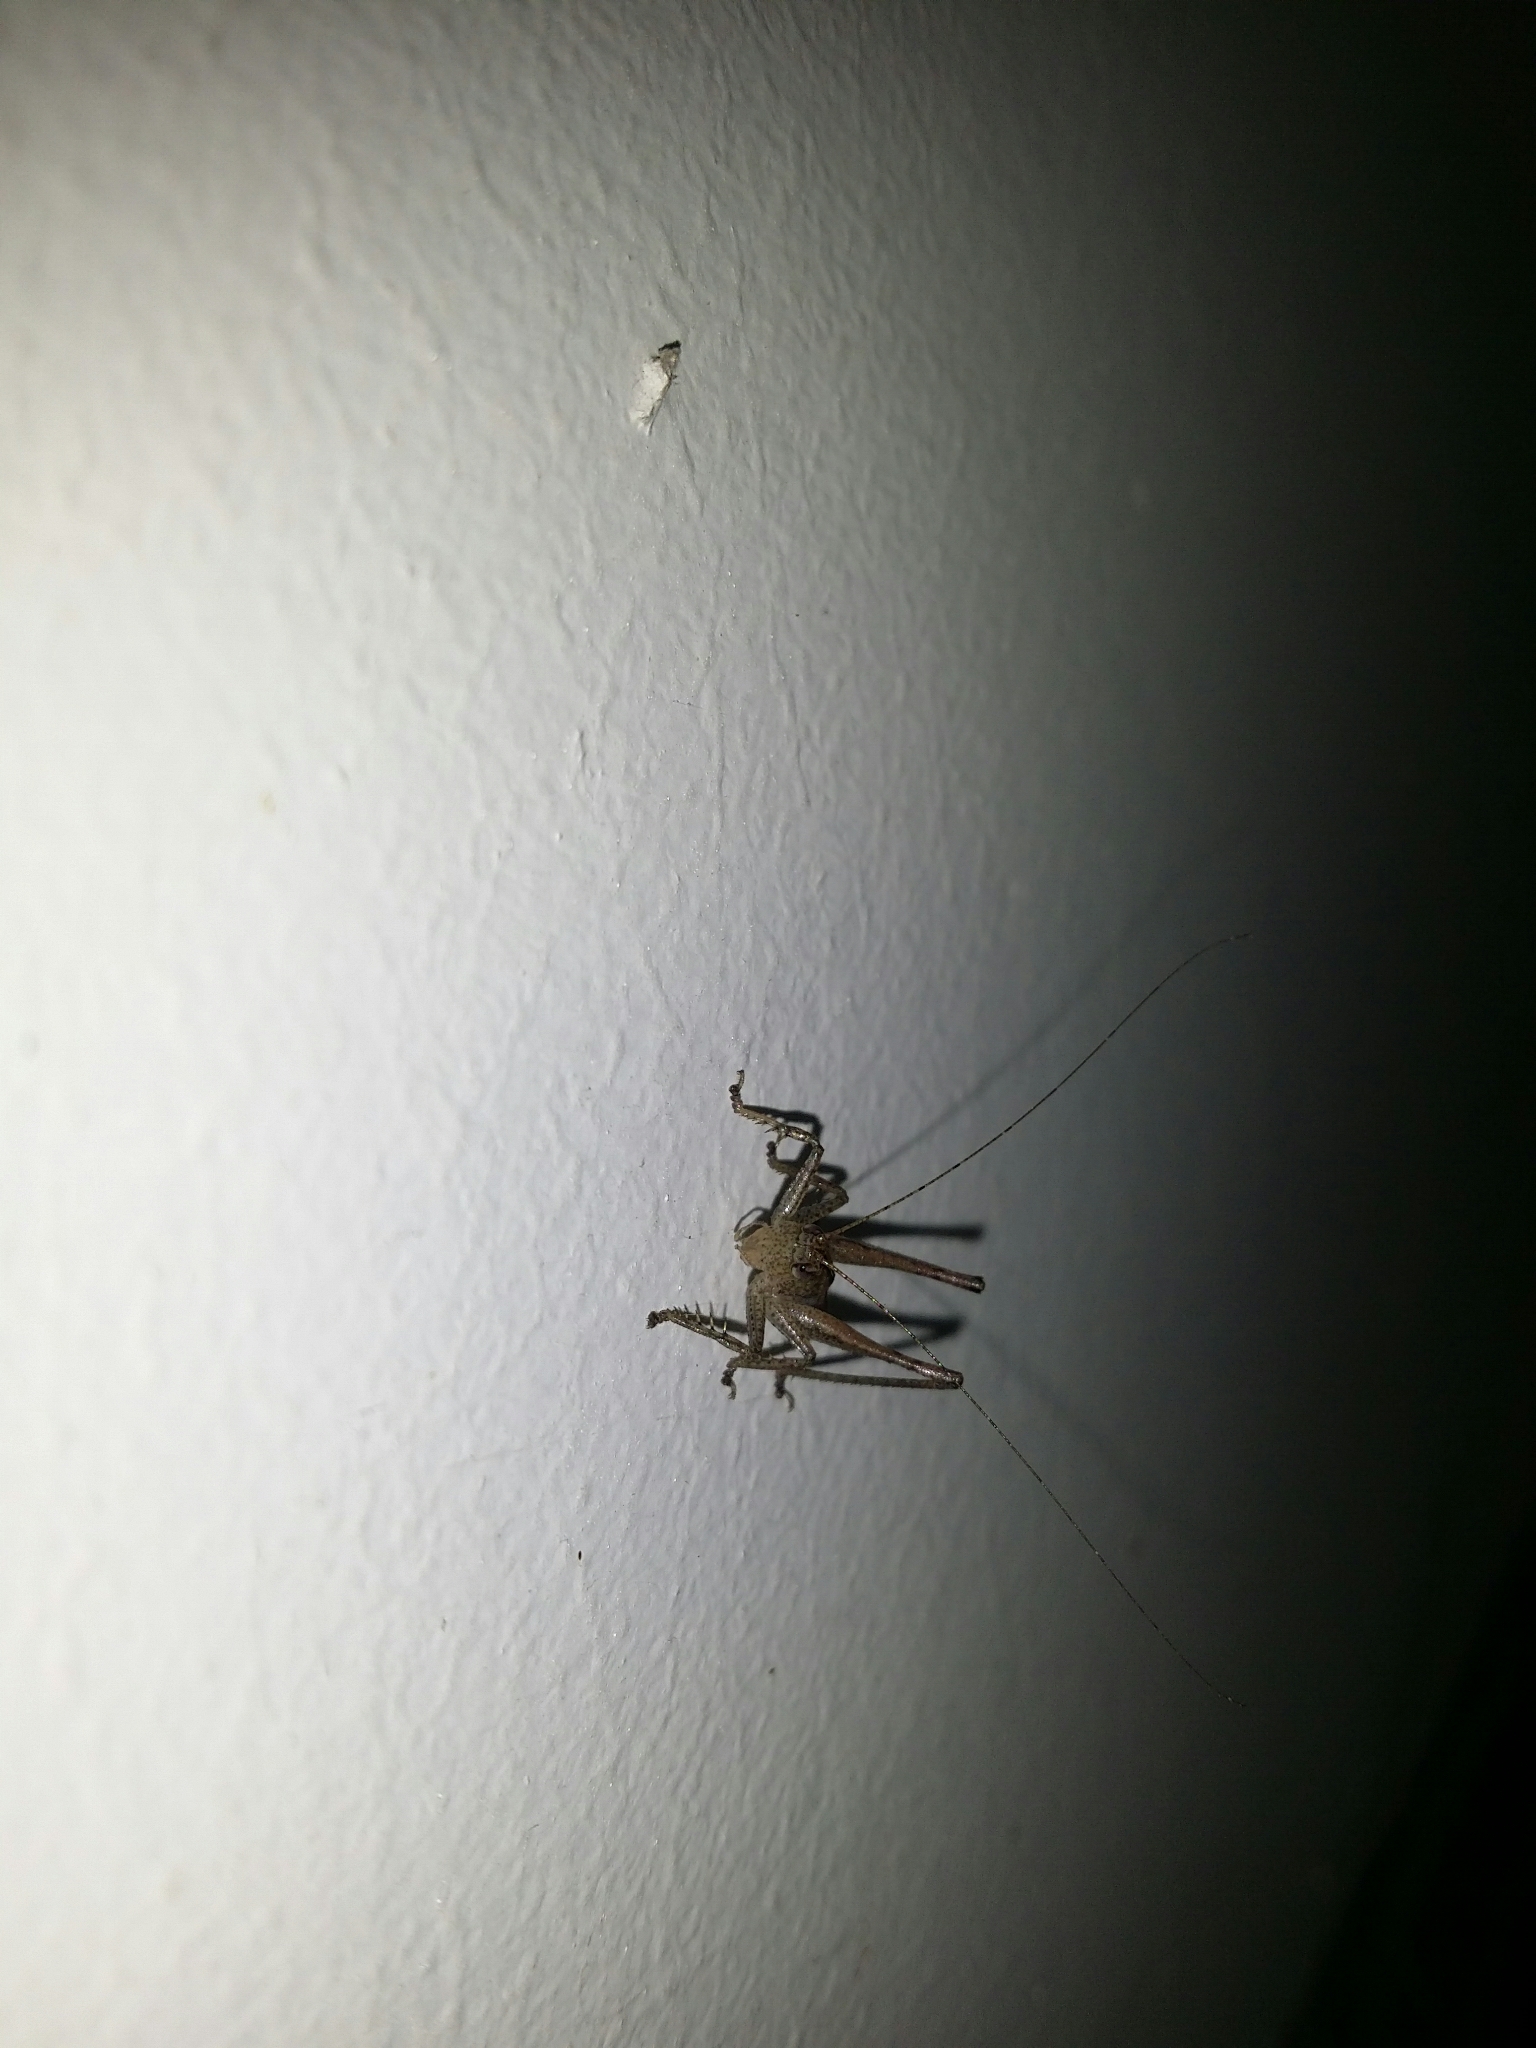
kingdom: Animalia
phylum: Arthropoda
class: Insecta
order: Orthoptera
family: Tettigoniidae
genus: Requena
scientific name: Requena verticalis
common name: Common western requena
